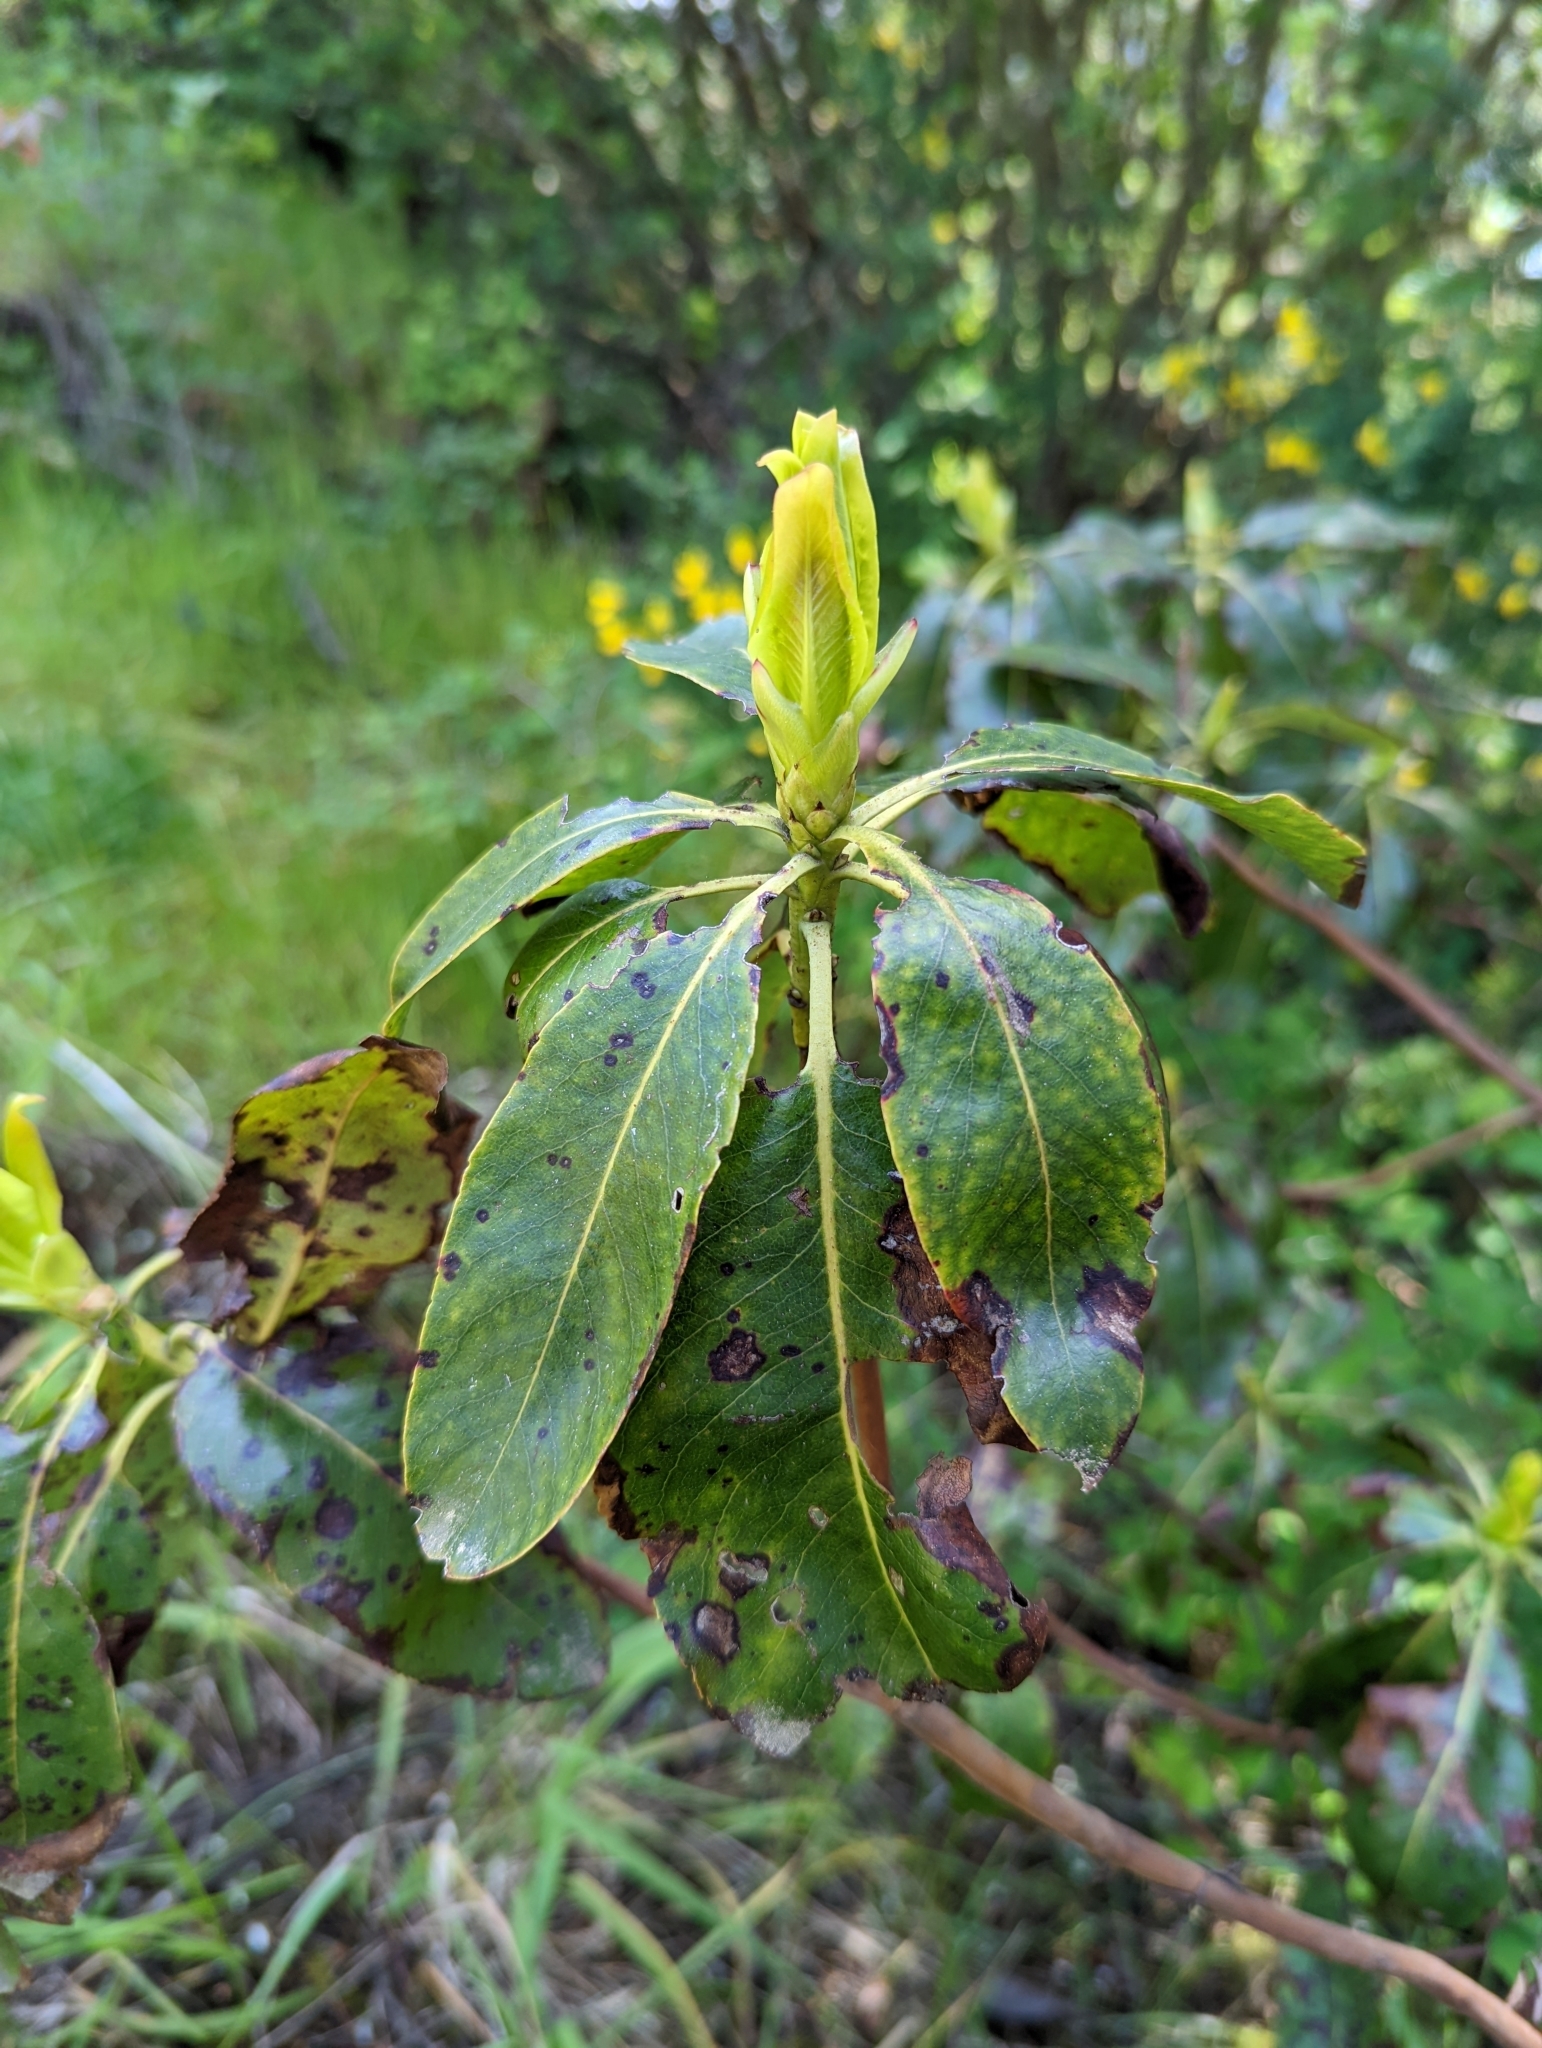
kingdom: Plantae
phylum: Tracheophyta
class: Magnoliopsida
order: Ericales
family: Ericaceae
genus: Arbutus
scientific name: Arbutus menziesii
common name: Pacific madrone
